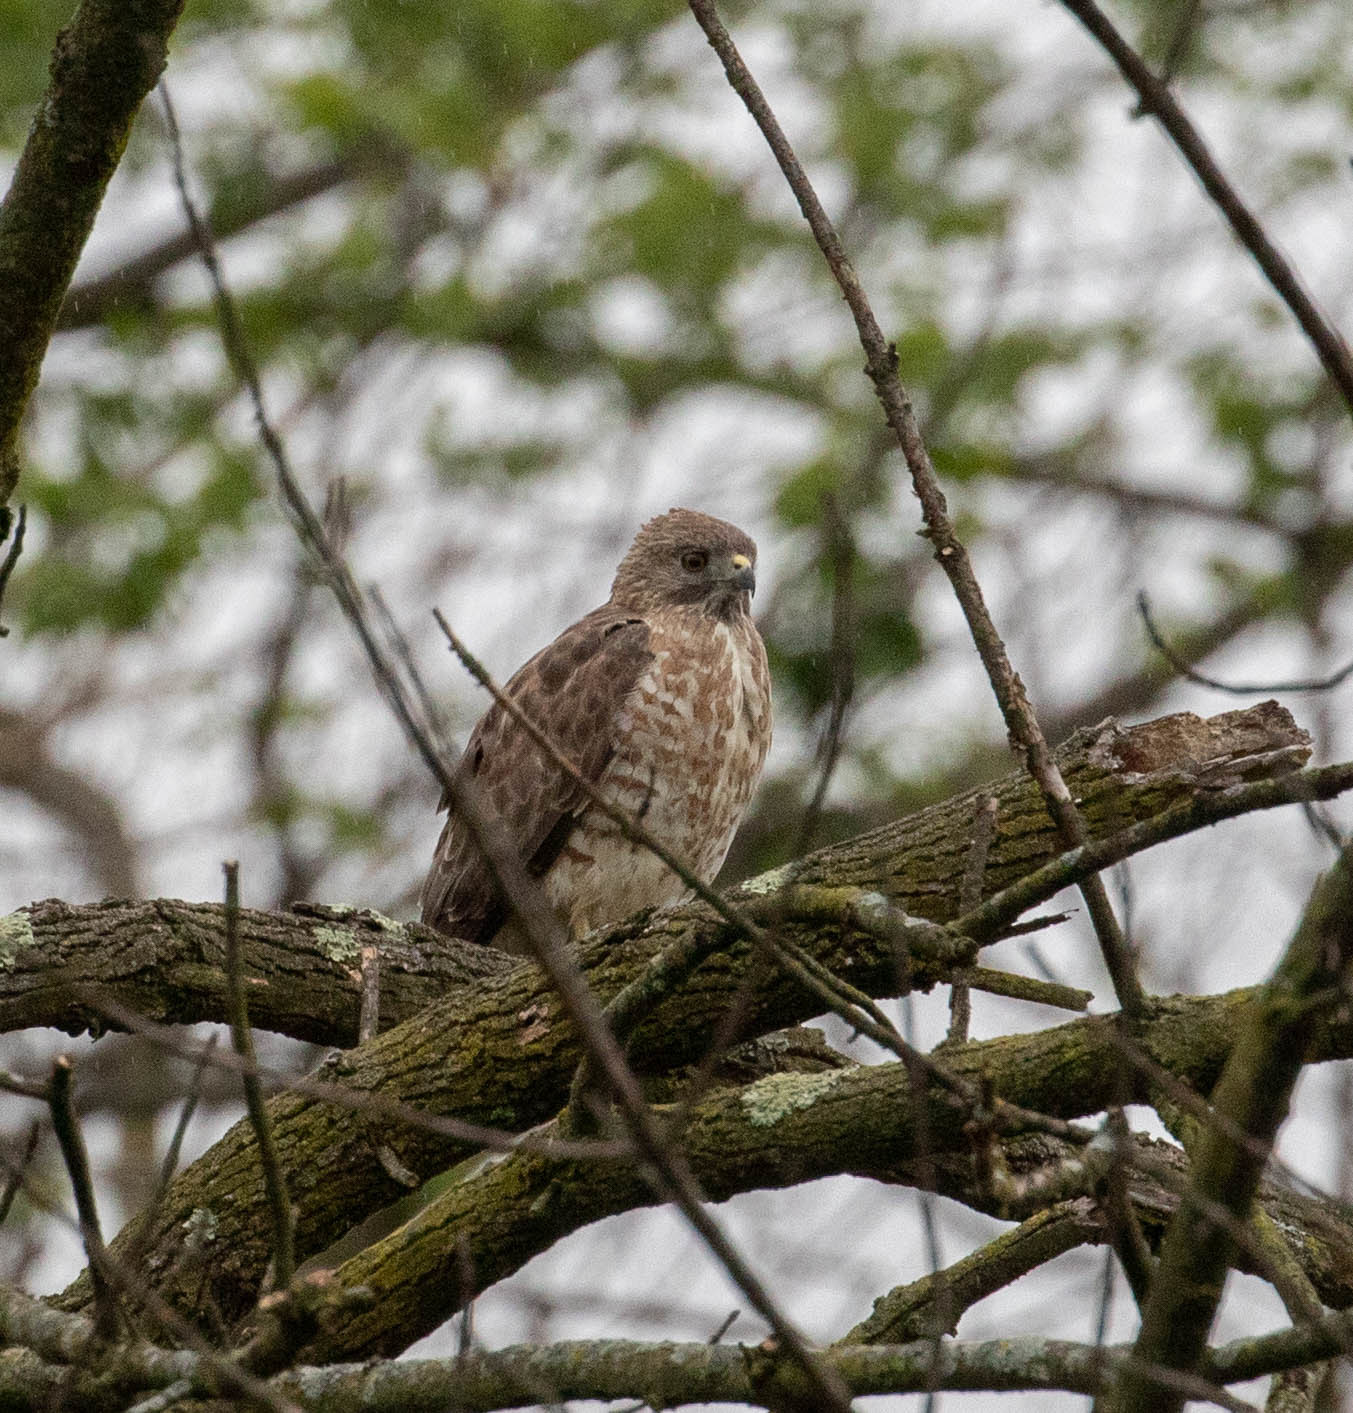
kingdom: Animalia
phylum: Chordata
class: Aves
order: Accipitriformes
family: Accipitridae
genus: Buteo
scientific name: Buteo platypterus
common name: Broad-winged hawk
